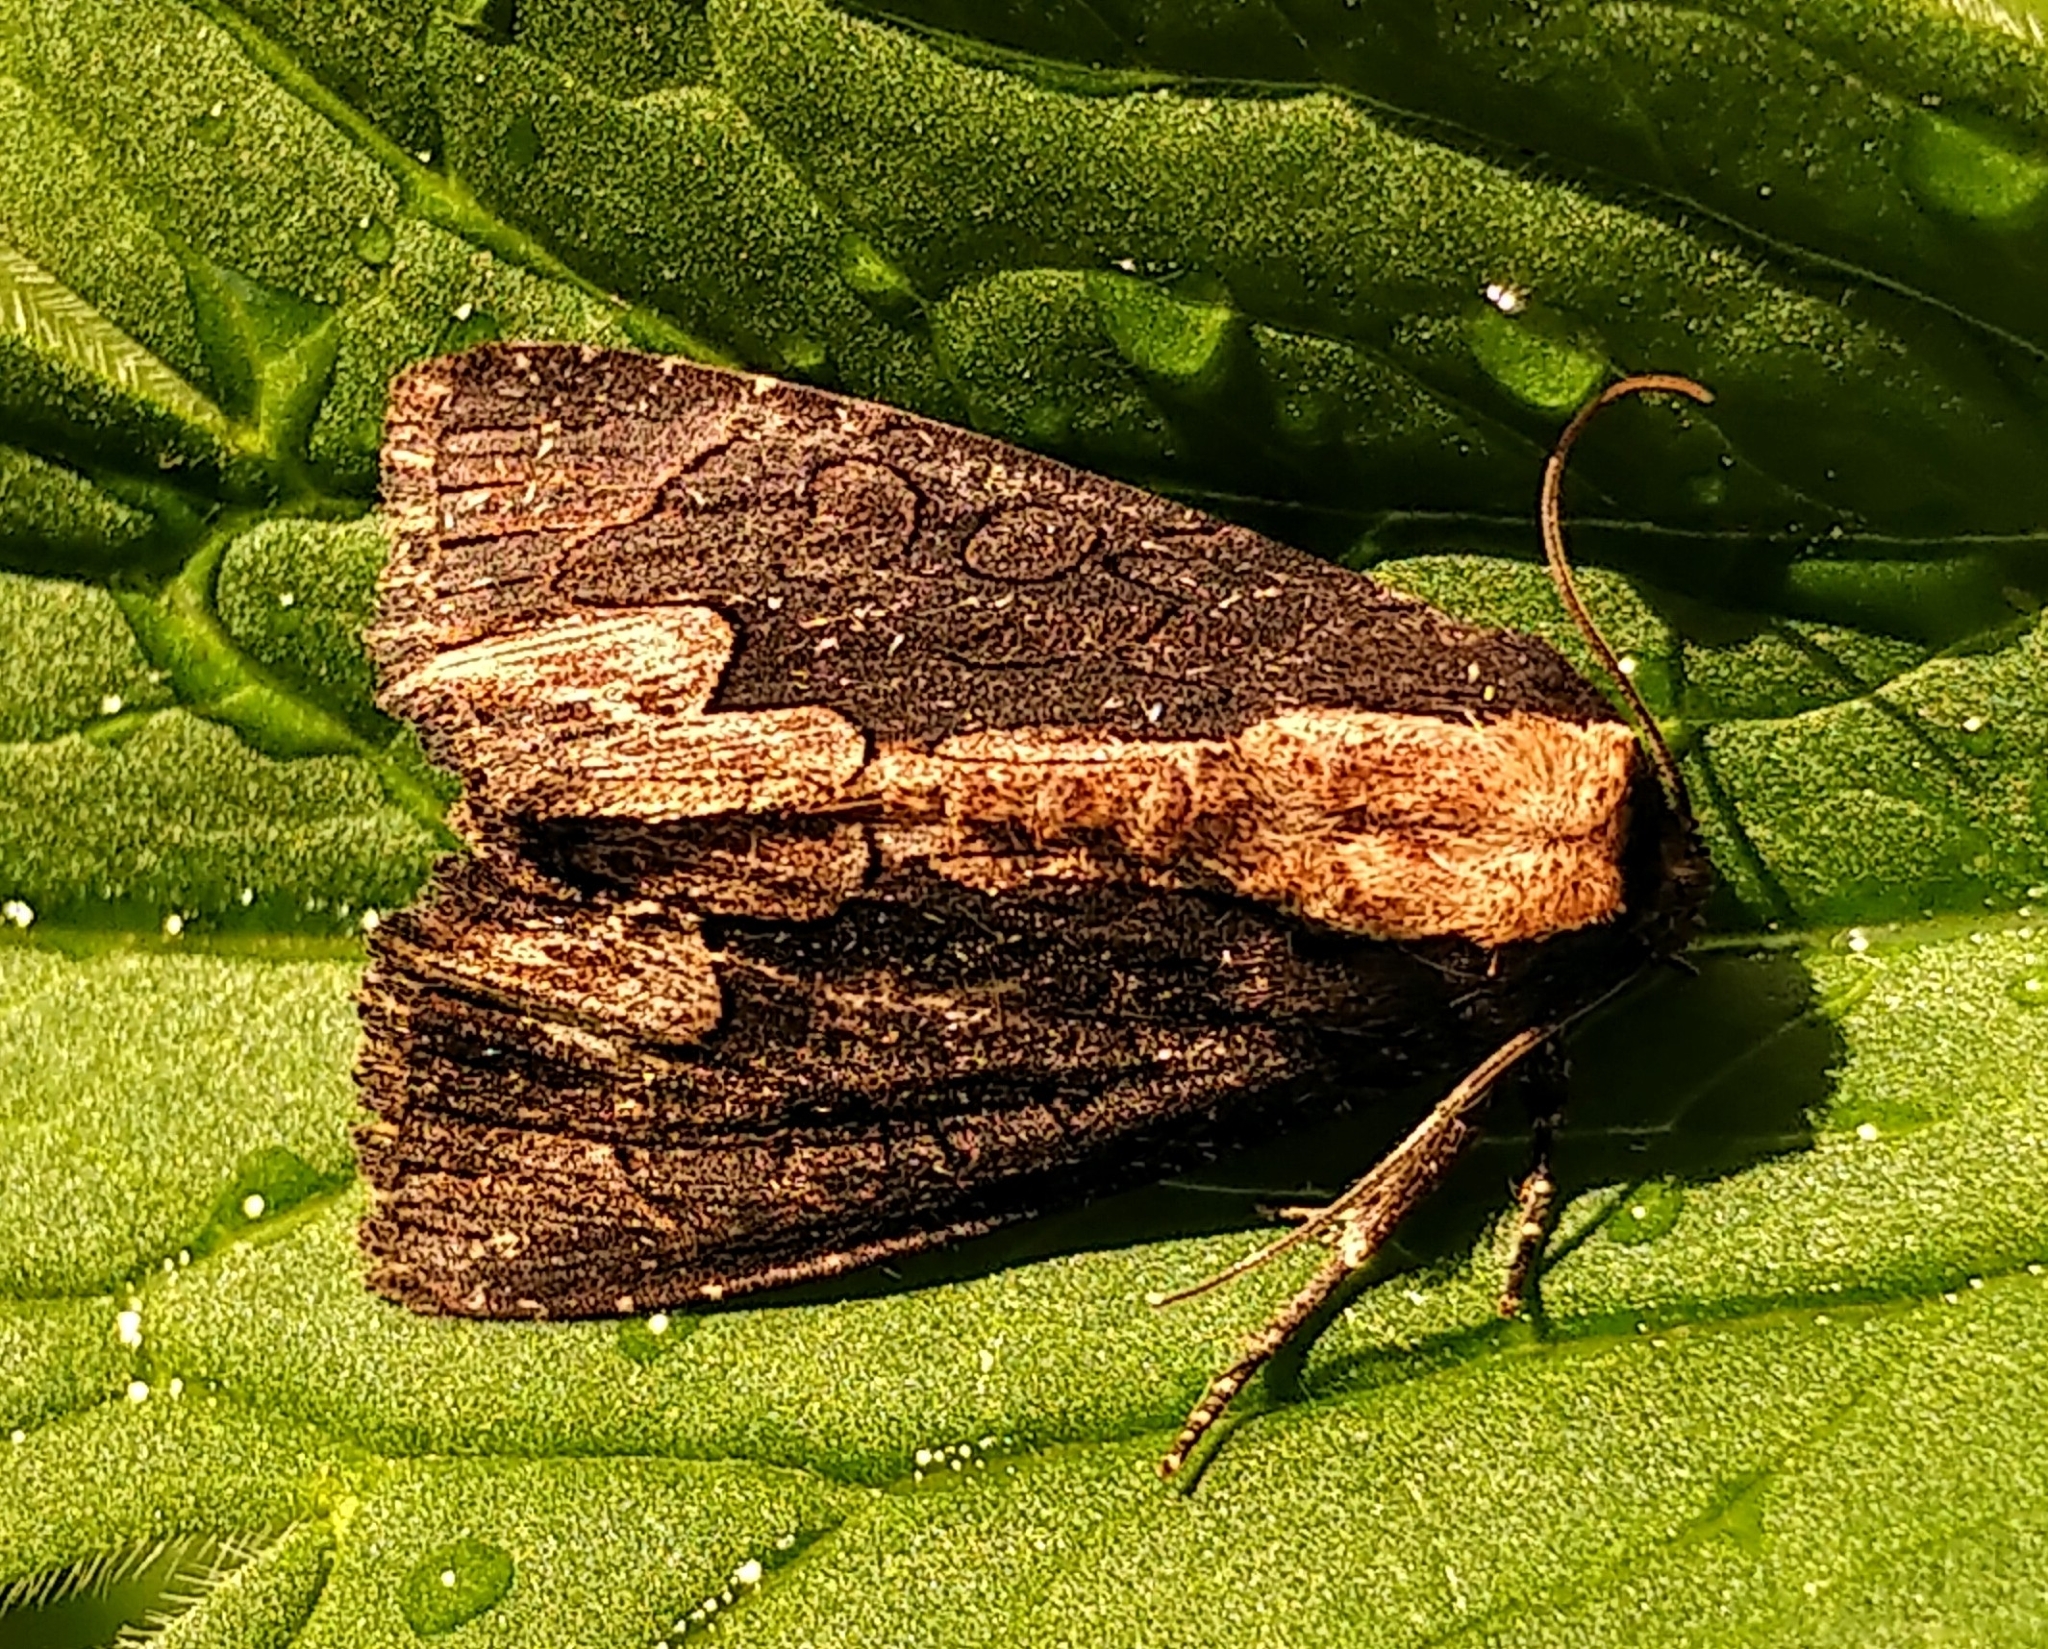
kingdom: Animalia
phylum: Arthropoda
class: Insecta
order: Lepidoptera
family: Noctuidae
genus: Dypterygia
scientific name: Dypterygia rozmani
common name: American bird's-wing
